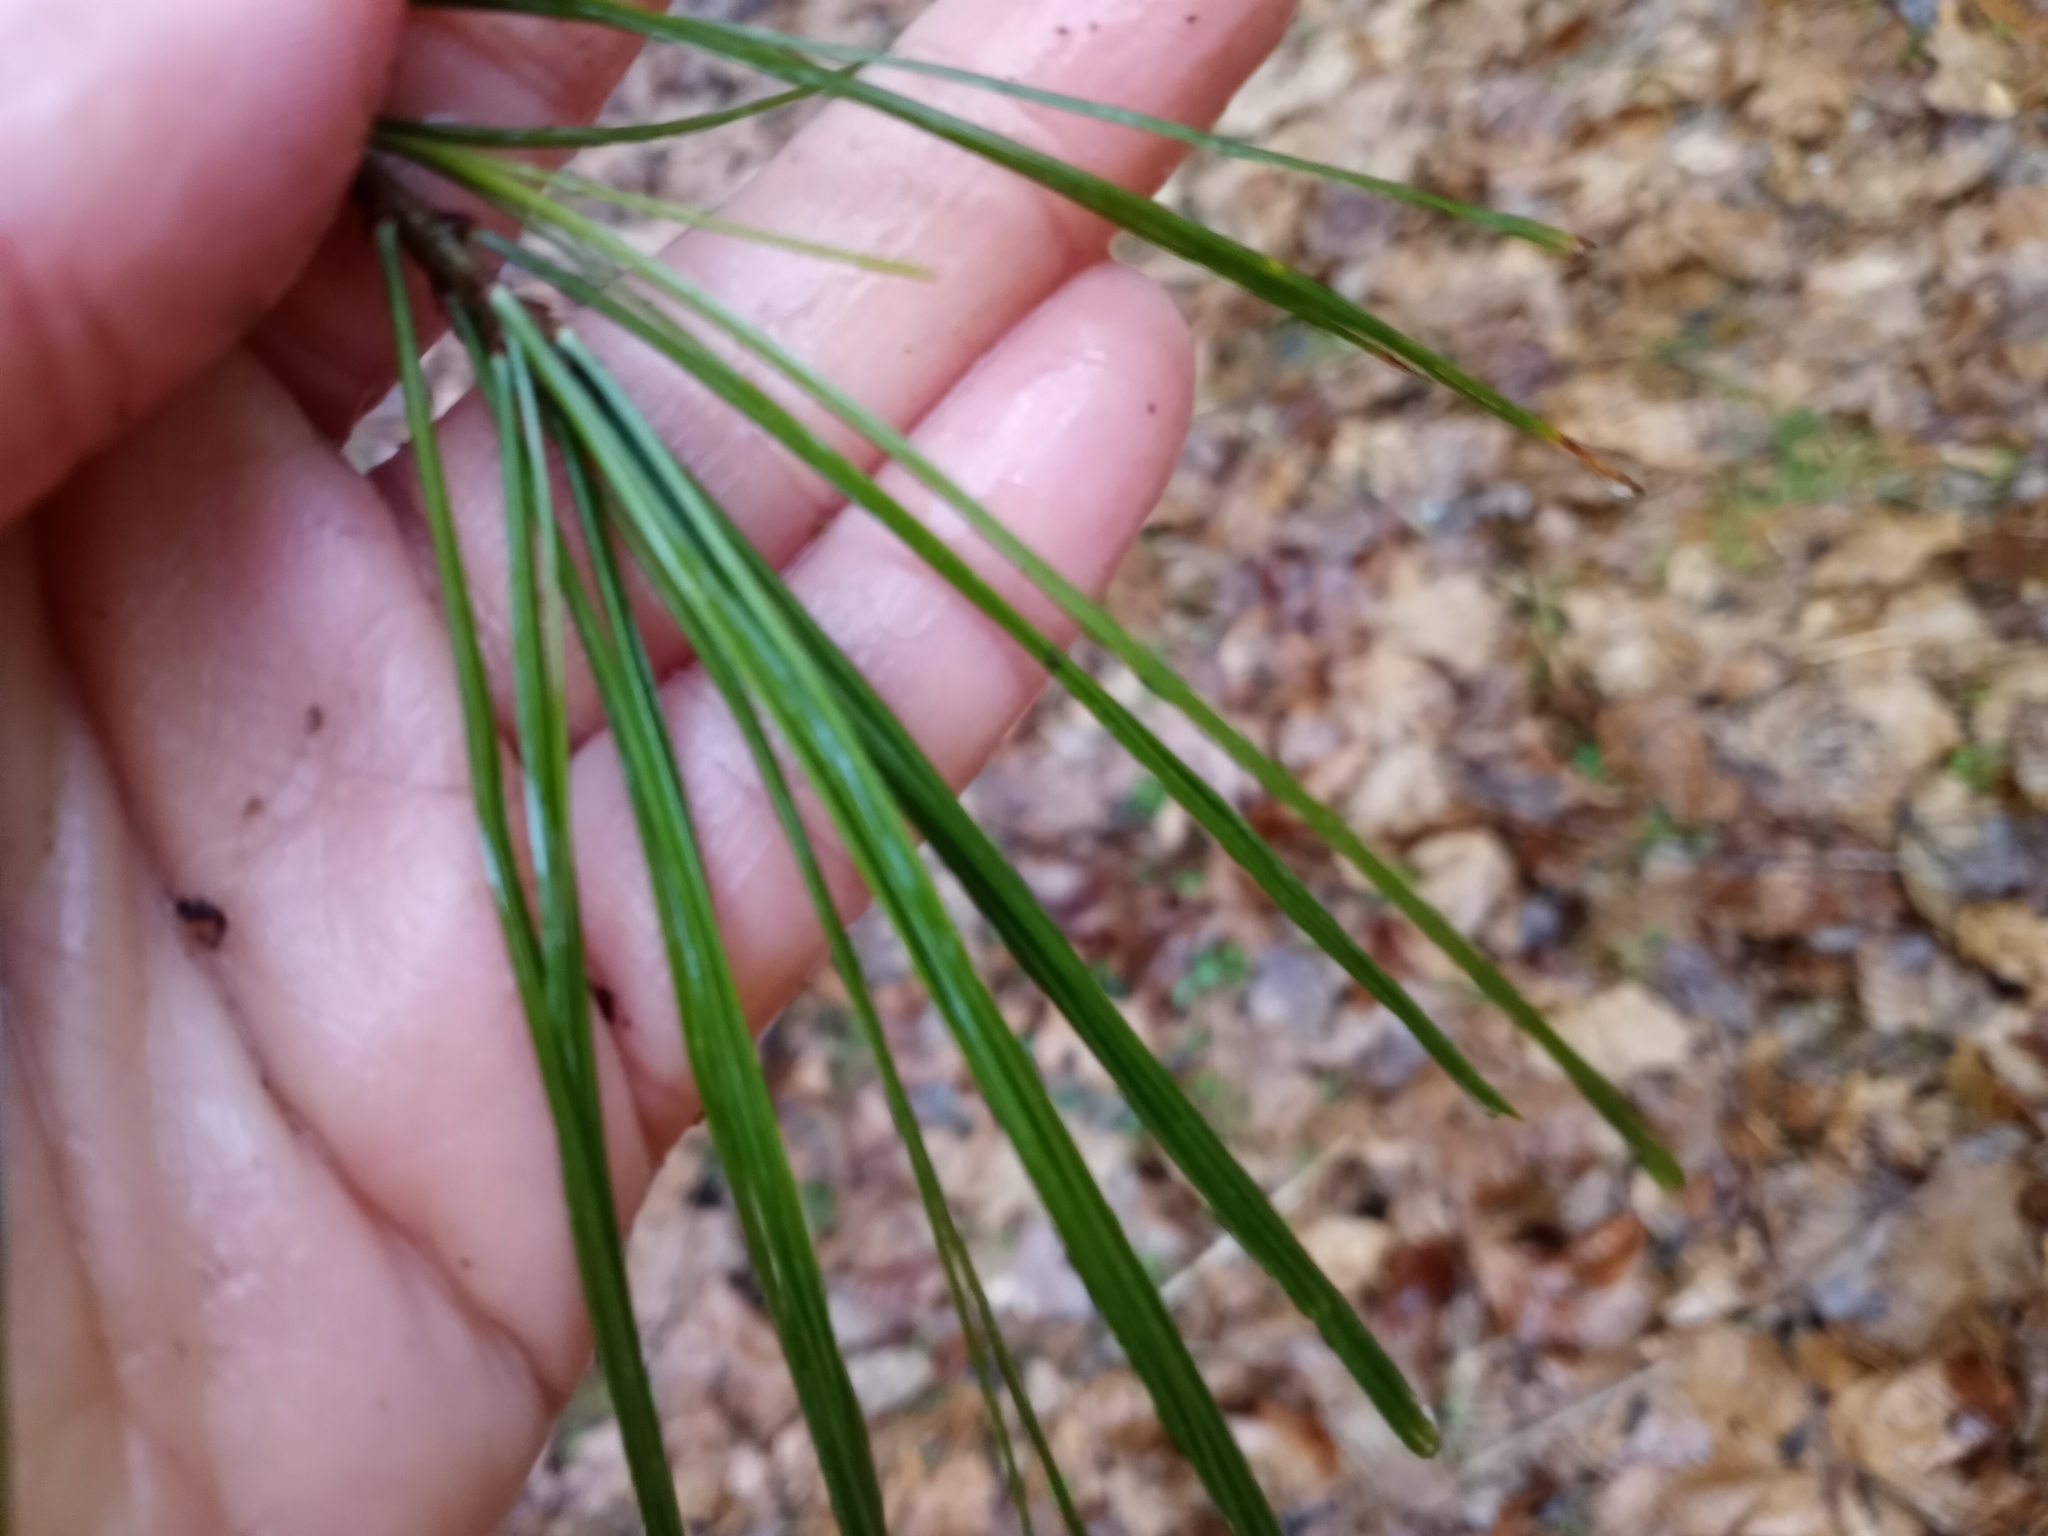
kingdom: Plantae
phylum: Tracheophyta
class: Pinopsida
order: Pinales
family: Pinaceae
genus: Pinus
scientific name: Pinus strobus
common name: Weymouth pine
